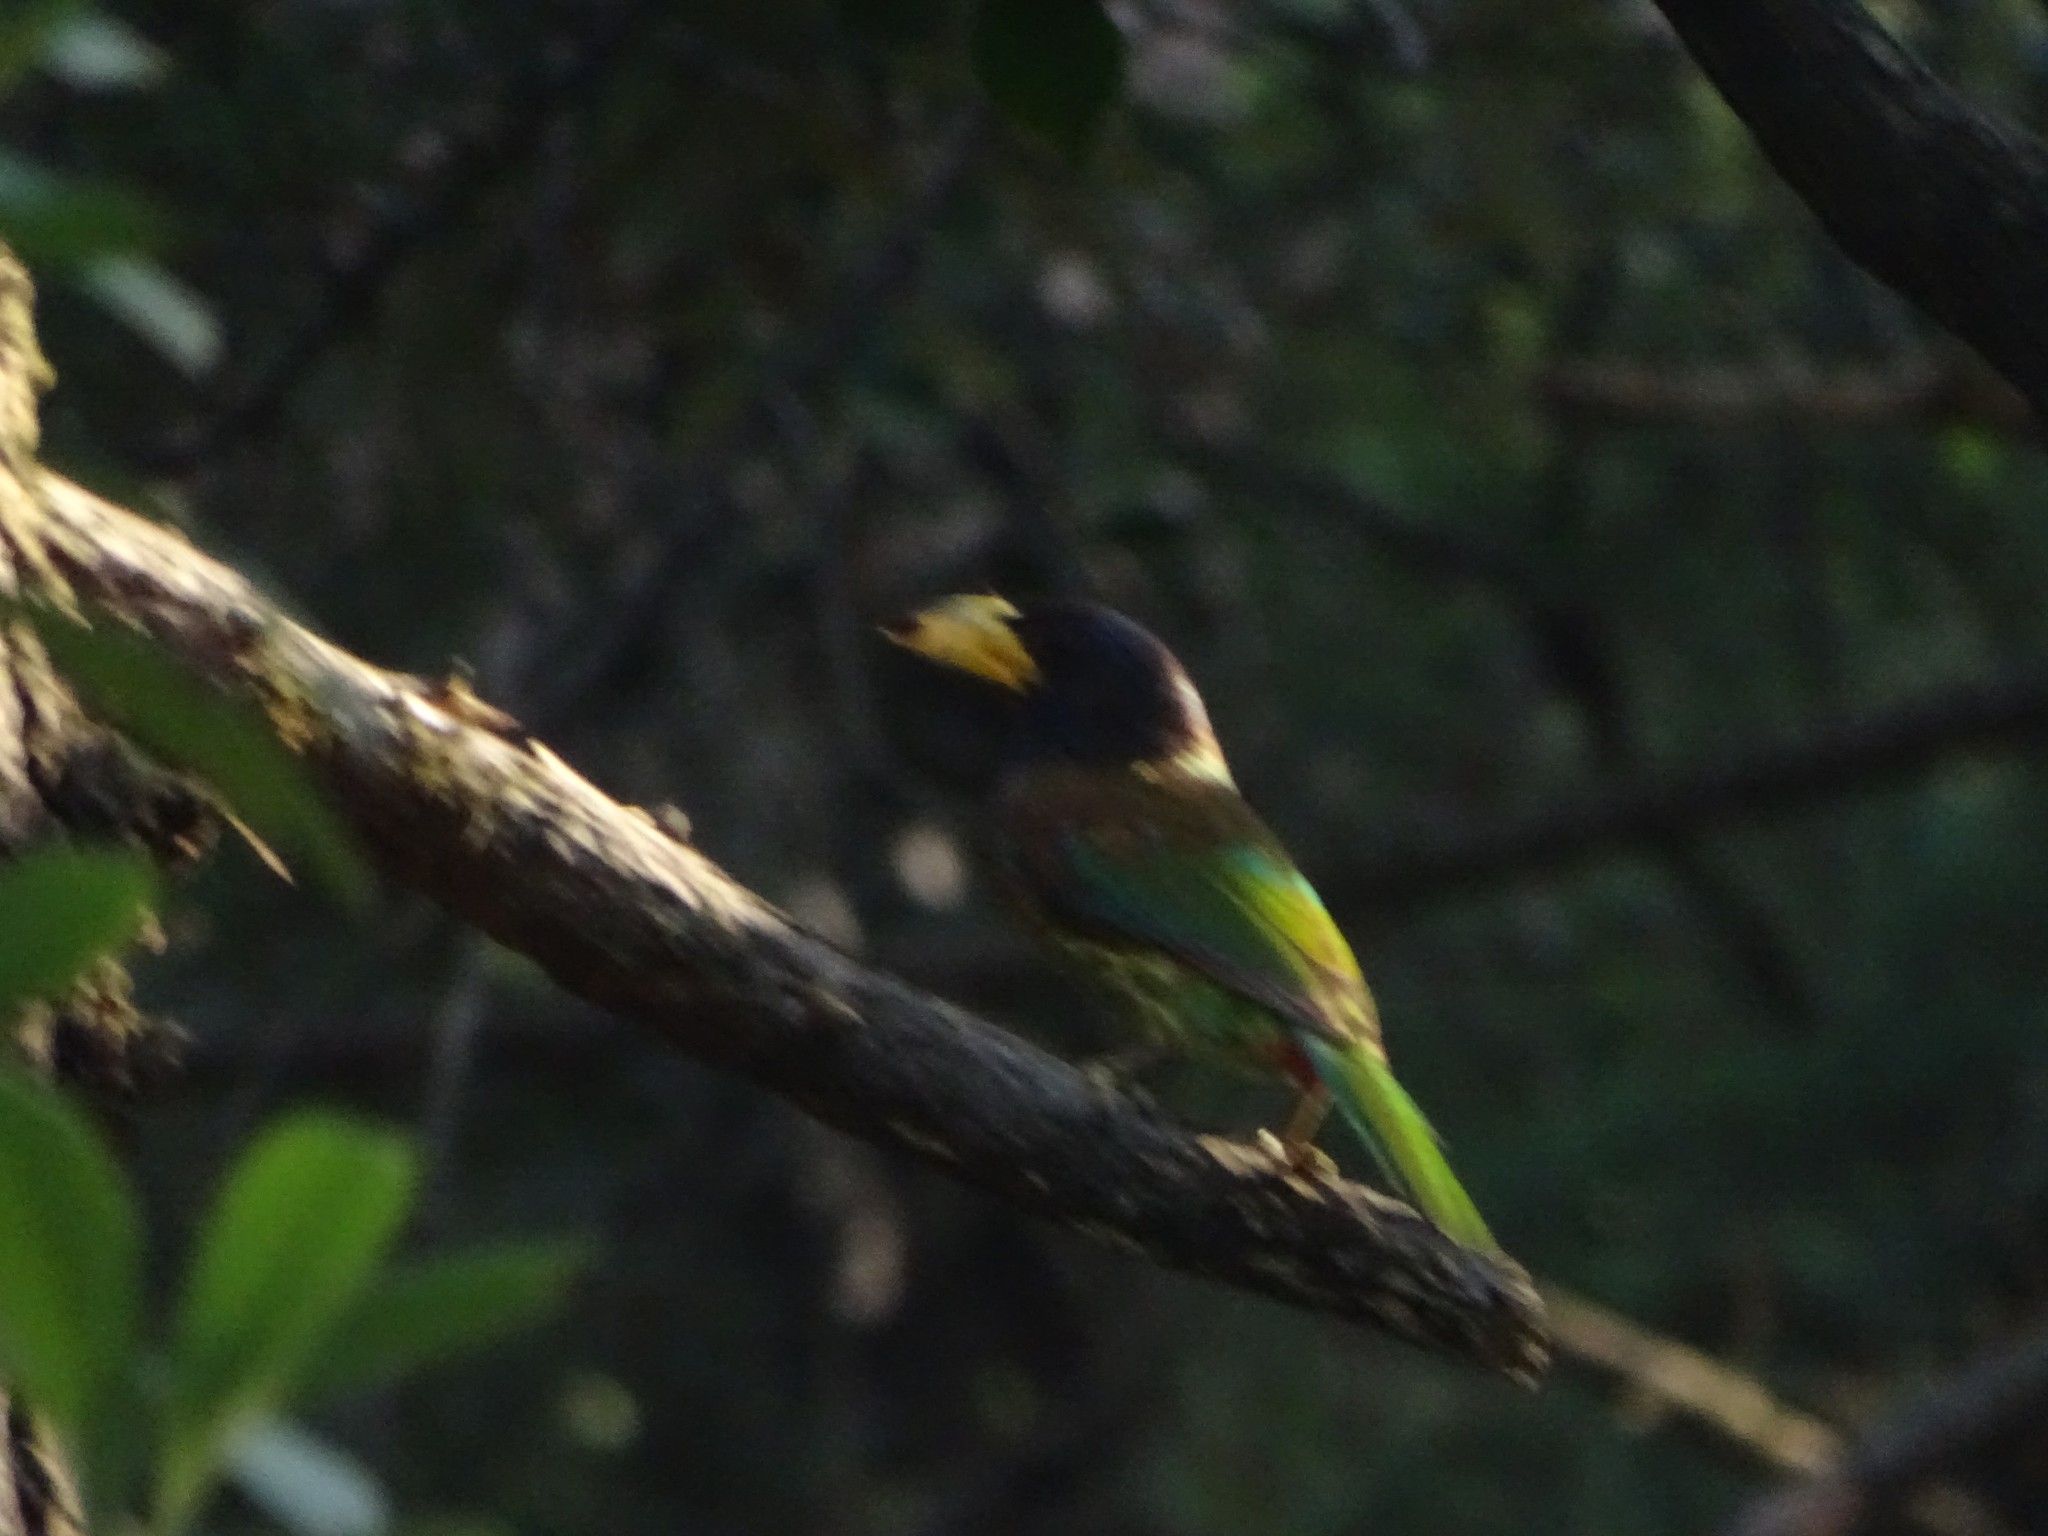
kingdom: Animalia
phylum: Chordata
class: Aves
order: Piciformes
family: Megalaimidae
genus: Psilopogon
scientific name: Psilopogon virens
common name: Great barbet
